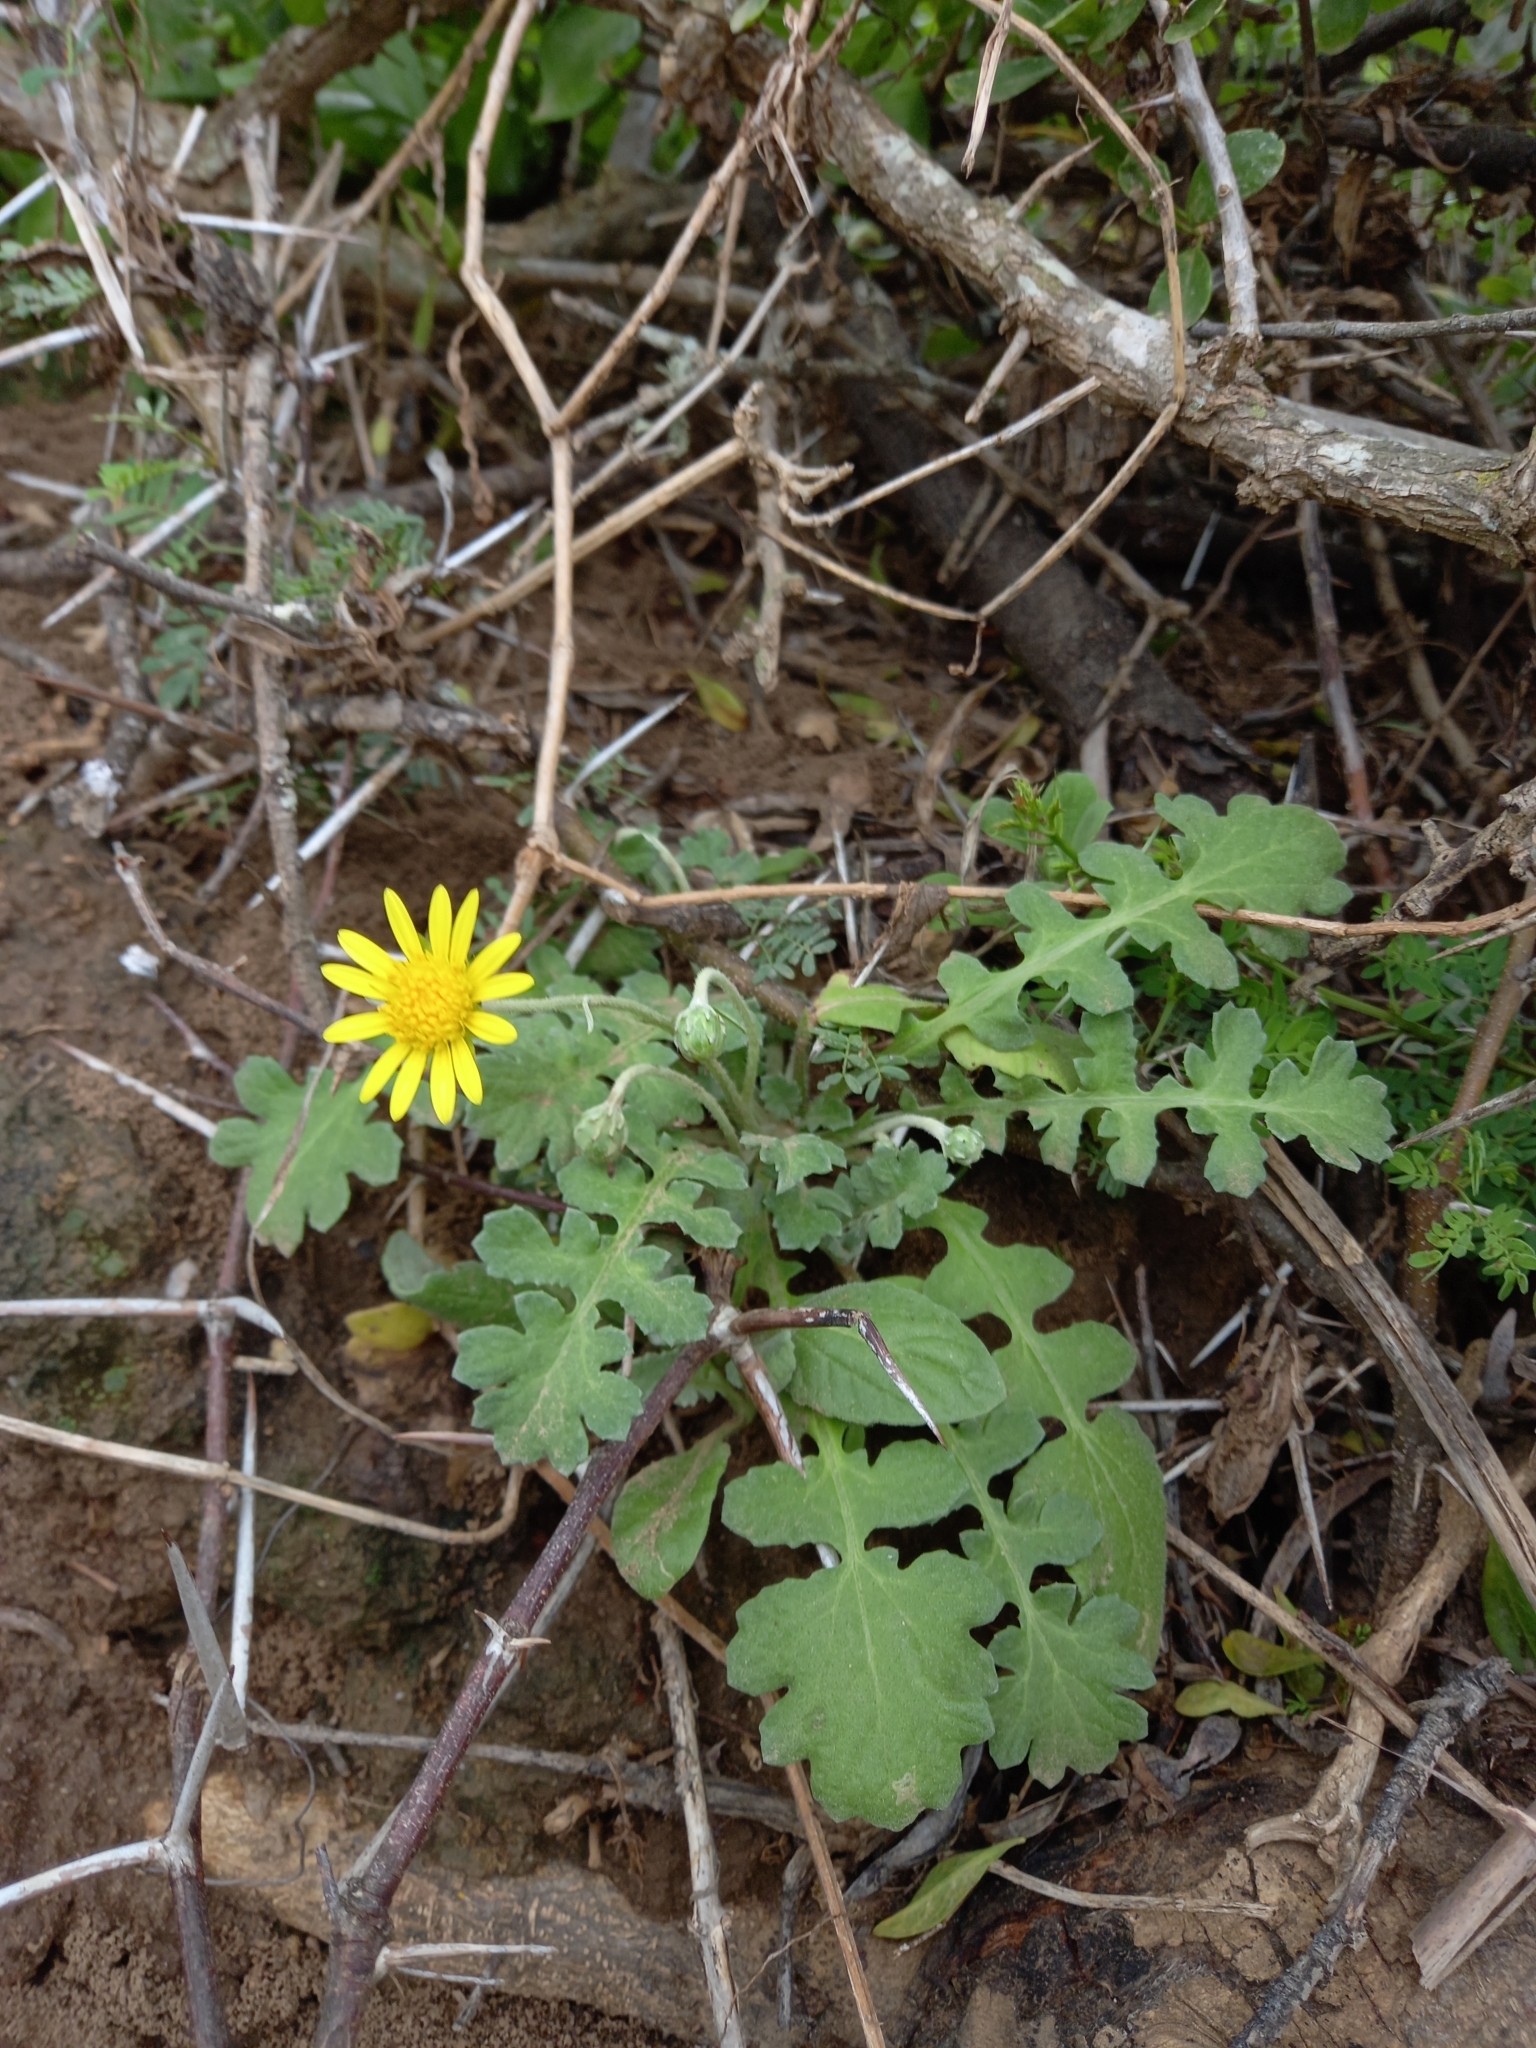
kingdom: Plantae
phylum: Tracheophyta
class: Magnoliopsida
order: Asterales
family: Asteraceae
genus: Arctotheca
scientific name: Arctotheca prostrata
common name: Capeweed
